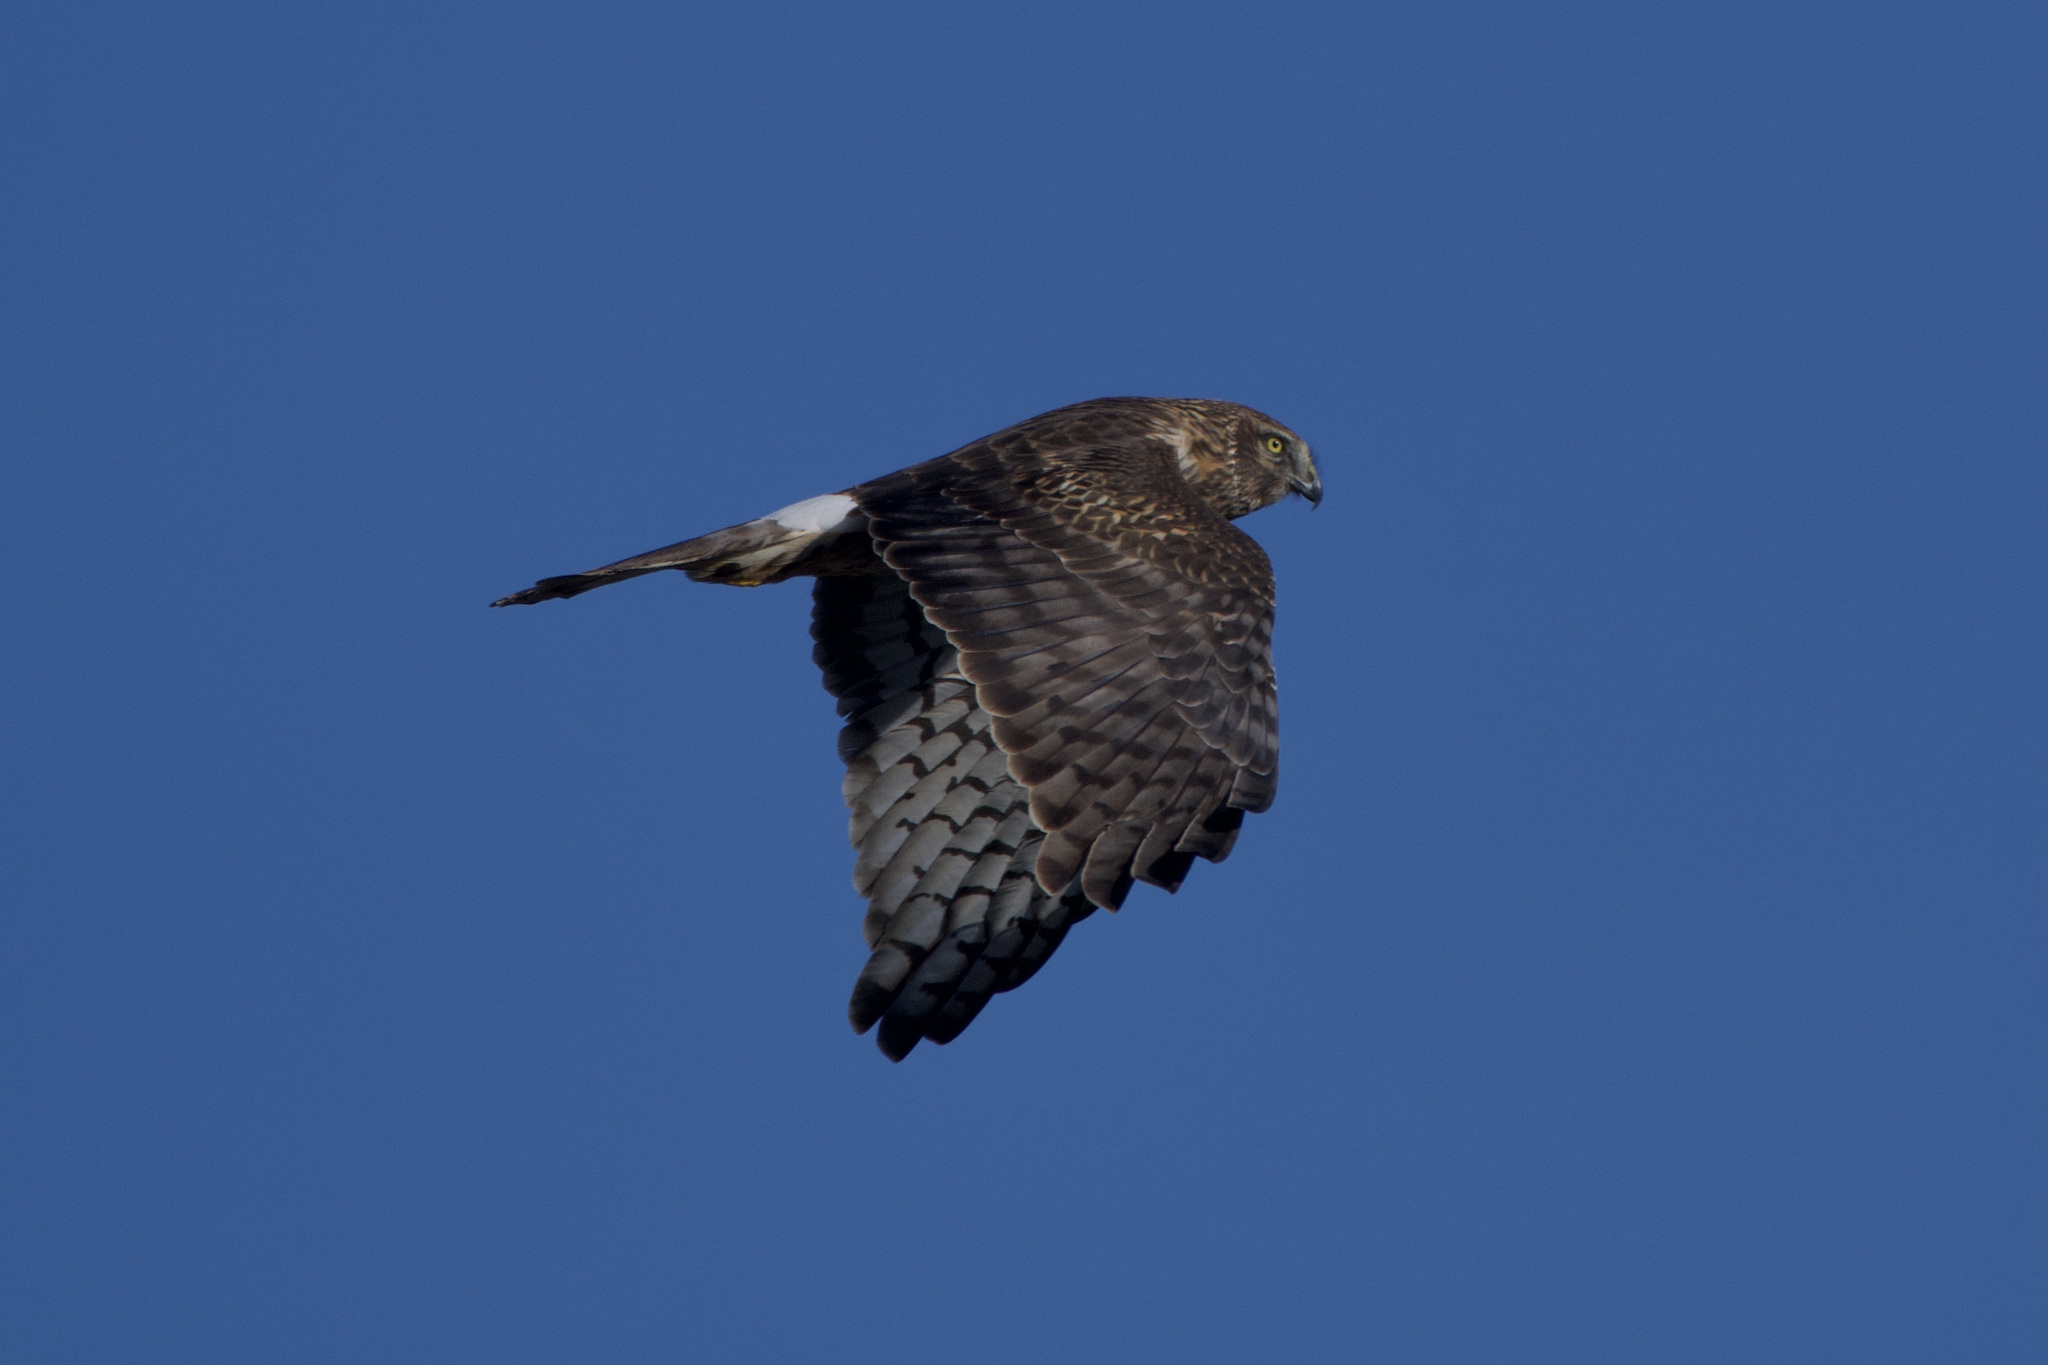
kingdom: Animalia
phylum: Chordata
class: Aves
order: Accipitriformes
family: Accipitridae
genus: Circus
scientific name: Circus cyaneus
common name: Hen harrier
